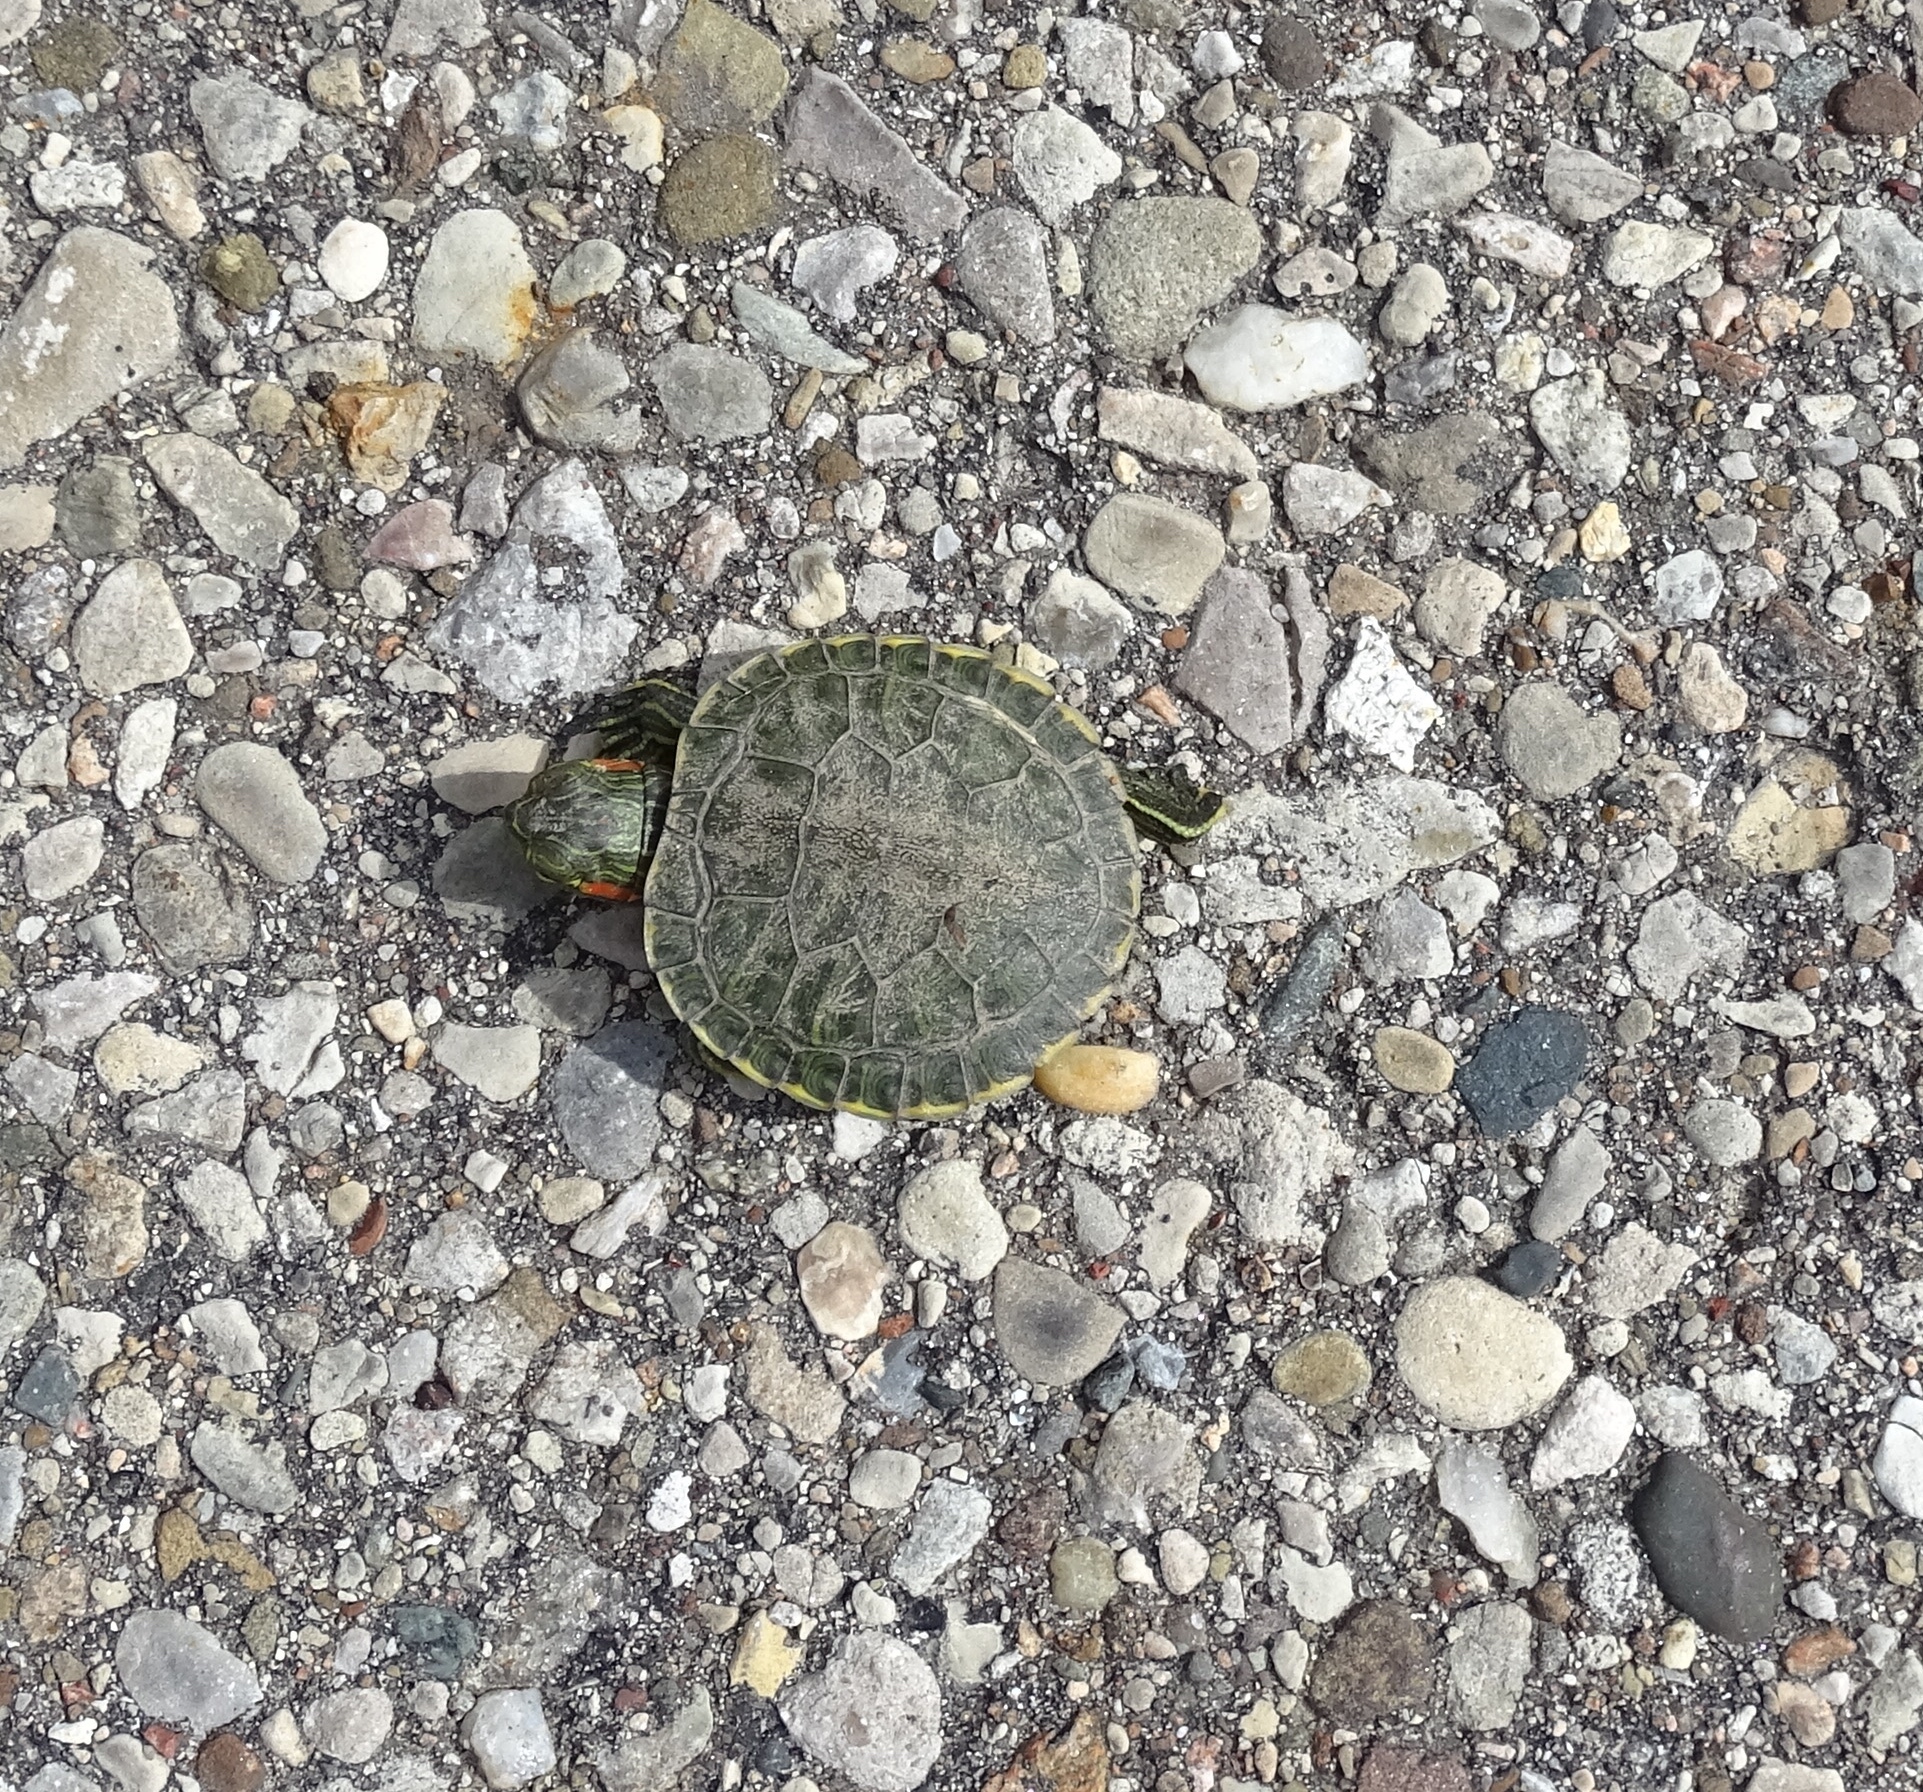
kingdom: Animalia
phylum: Chordata
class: Testudines
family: Emydidae
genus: Trachemys
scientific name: Trachemys scripta
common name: Slider
